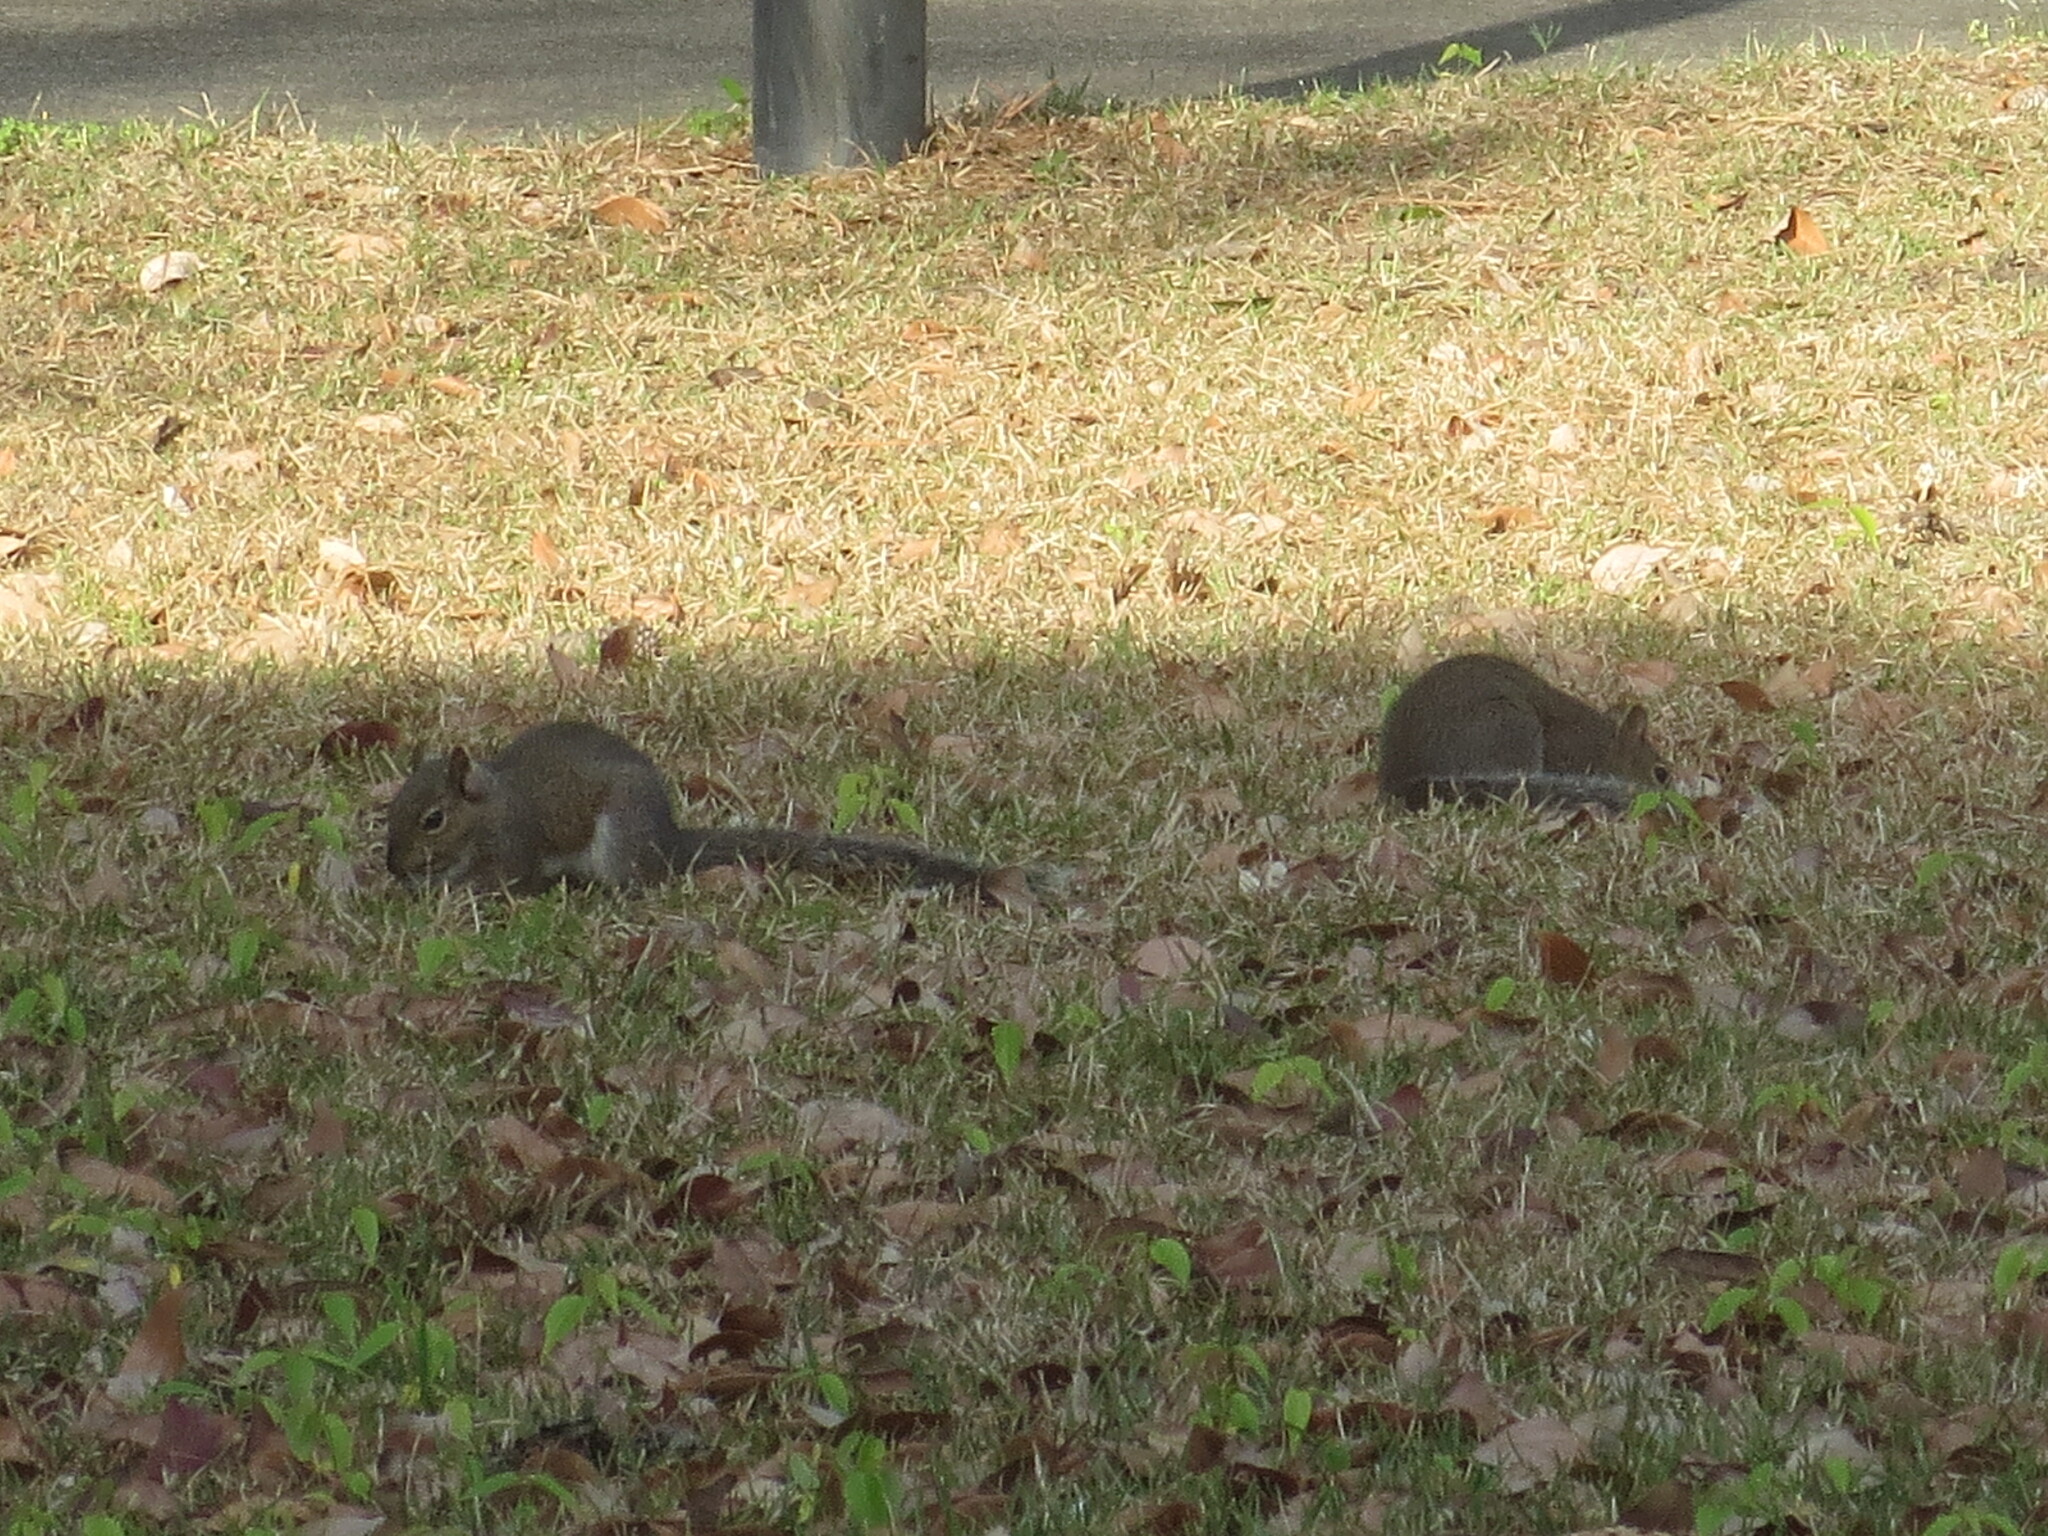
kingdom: Animalia
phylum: Chordata
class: Mammalia
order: Rodentia
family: Sciuridae
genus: Sciurus
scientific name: Sciurus carolinensis
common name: Eastern gray squirrel
